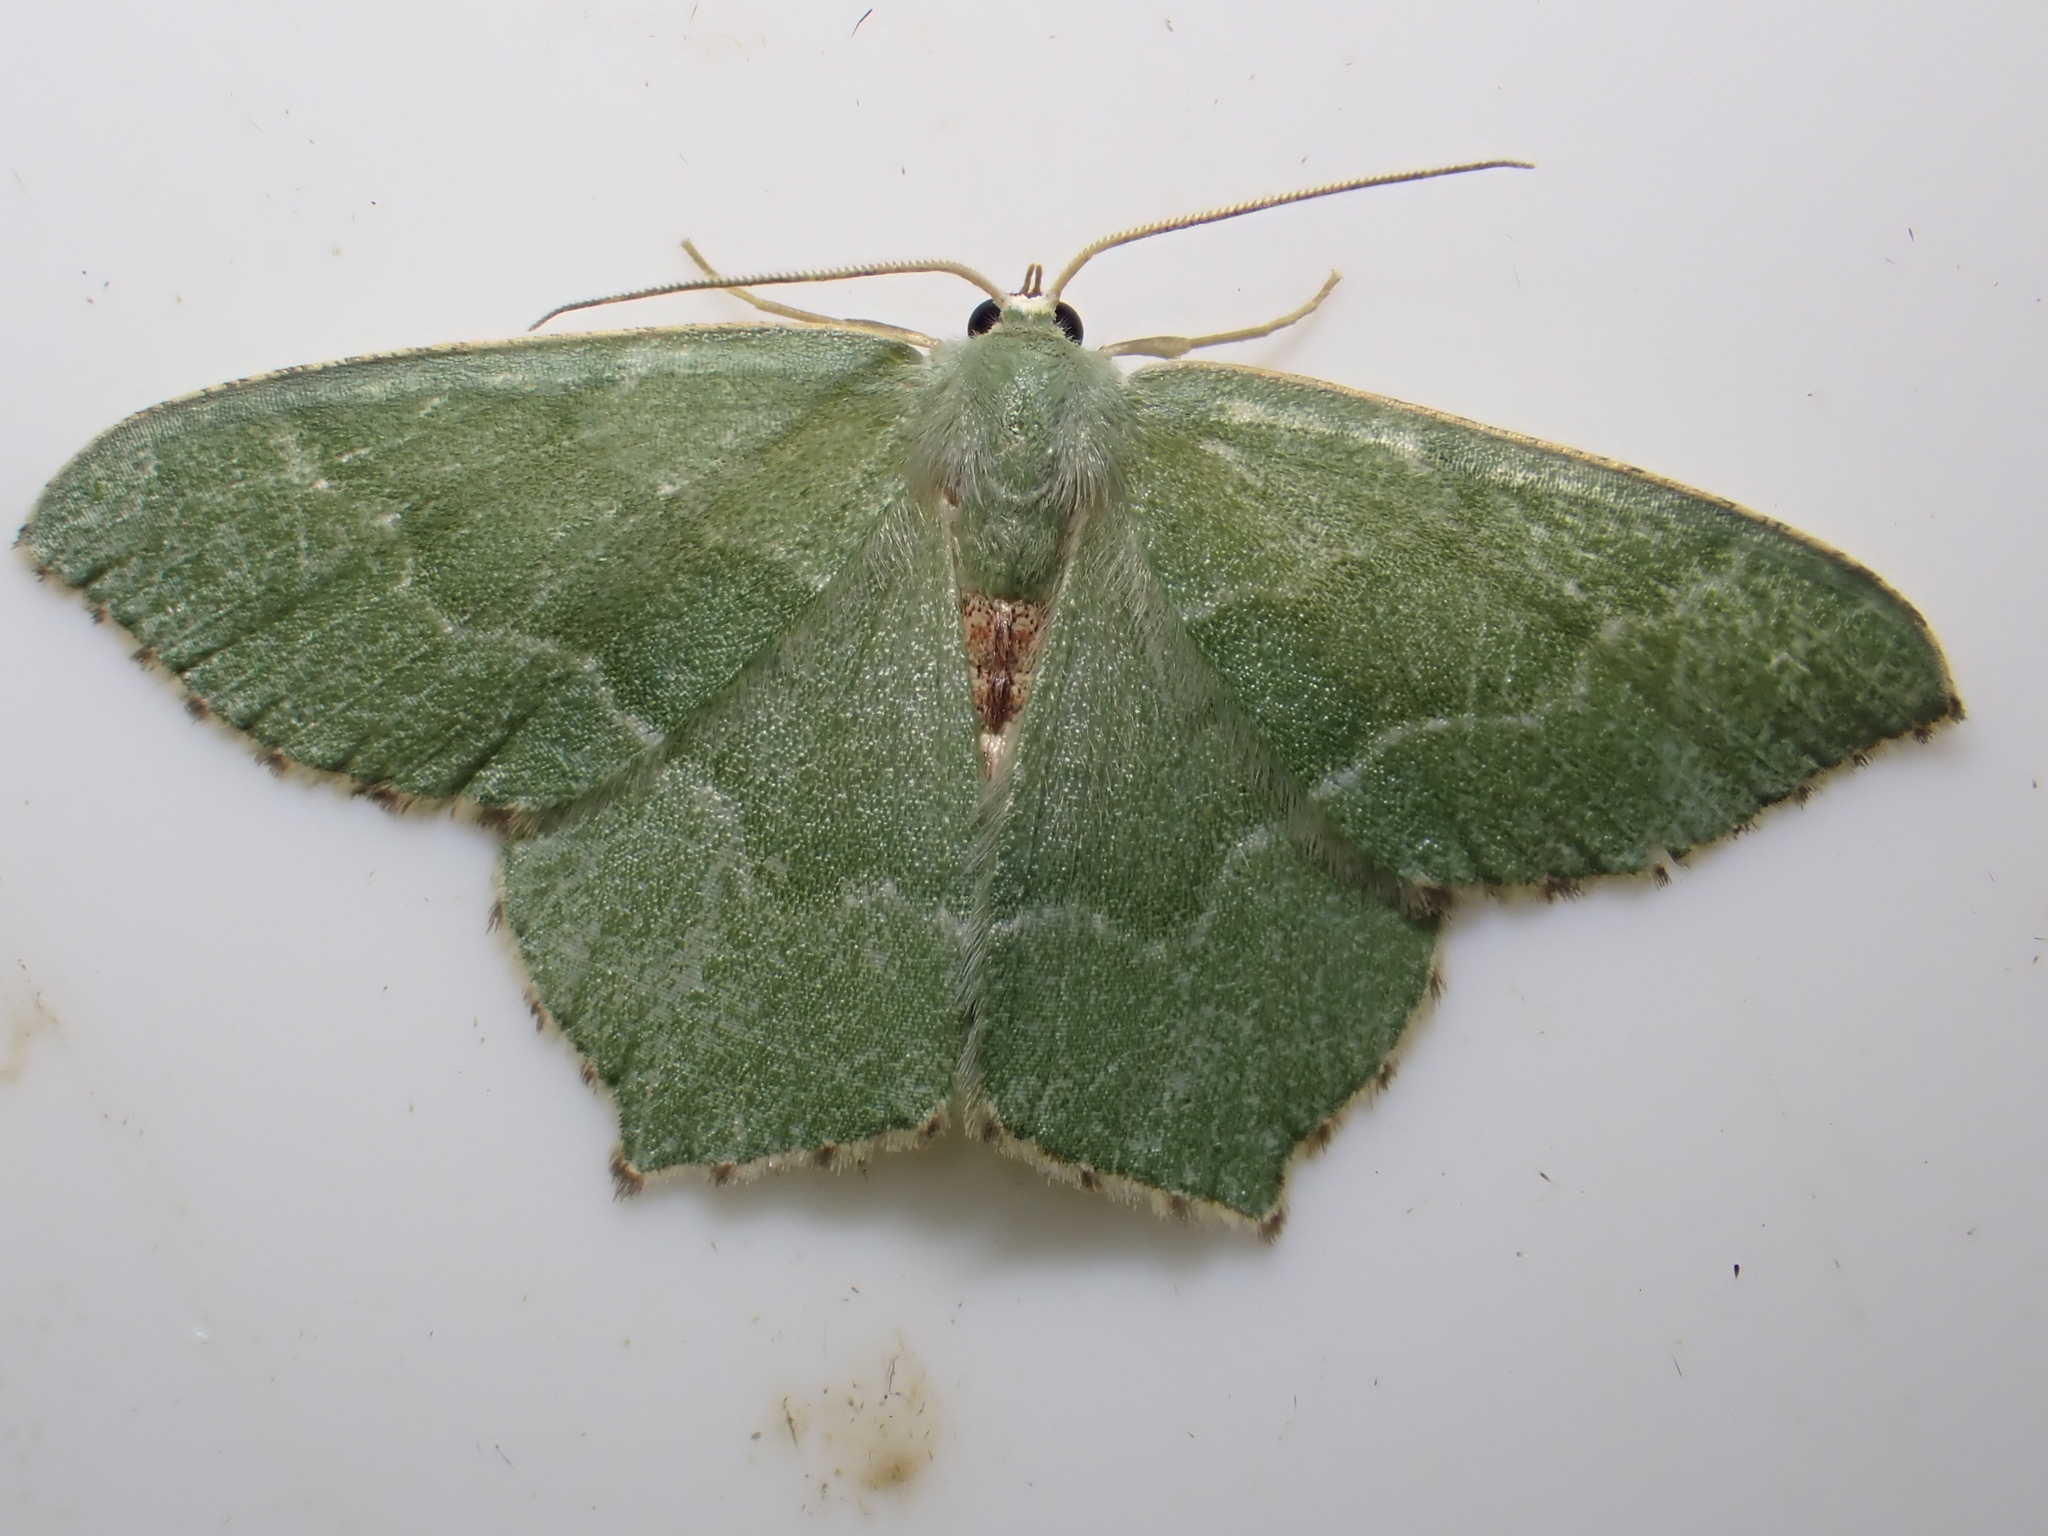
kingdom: Animalia
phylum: Arthropoda
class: Insecta
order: Lepidoptera
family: Geometridae
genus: Hemithea
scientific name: Hemithea aestivaria
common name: Common emerald
